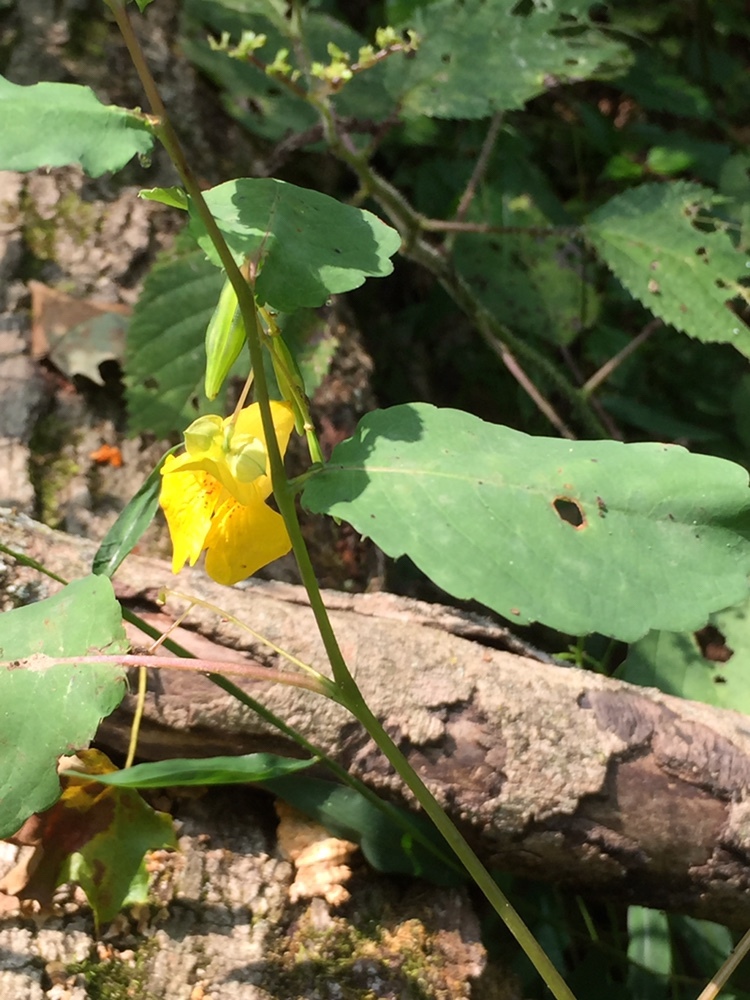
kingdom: Plantae
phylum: Tracheophyta
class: Magnoliopsida
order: Ericales
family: Balsaminaceae
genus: Impatiens
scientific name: Impatiens pallida
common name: Pale snapweed
